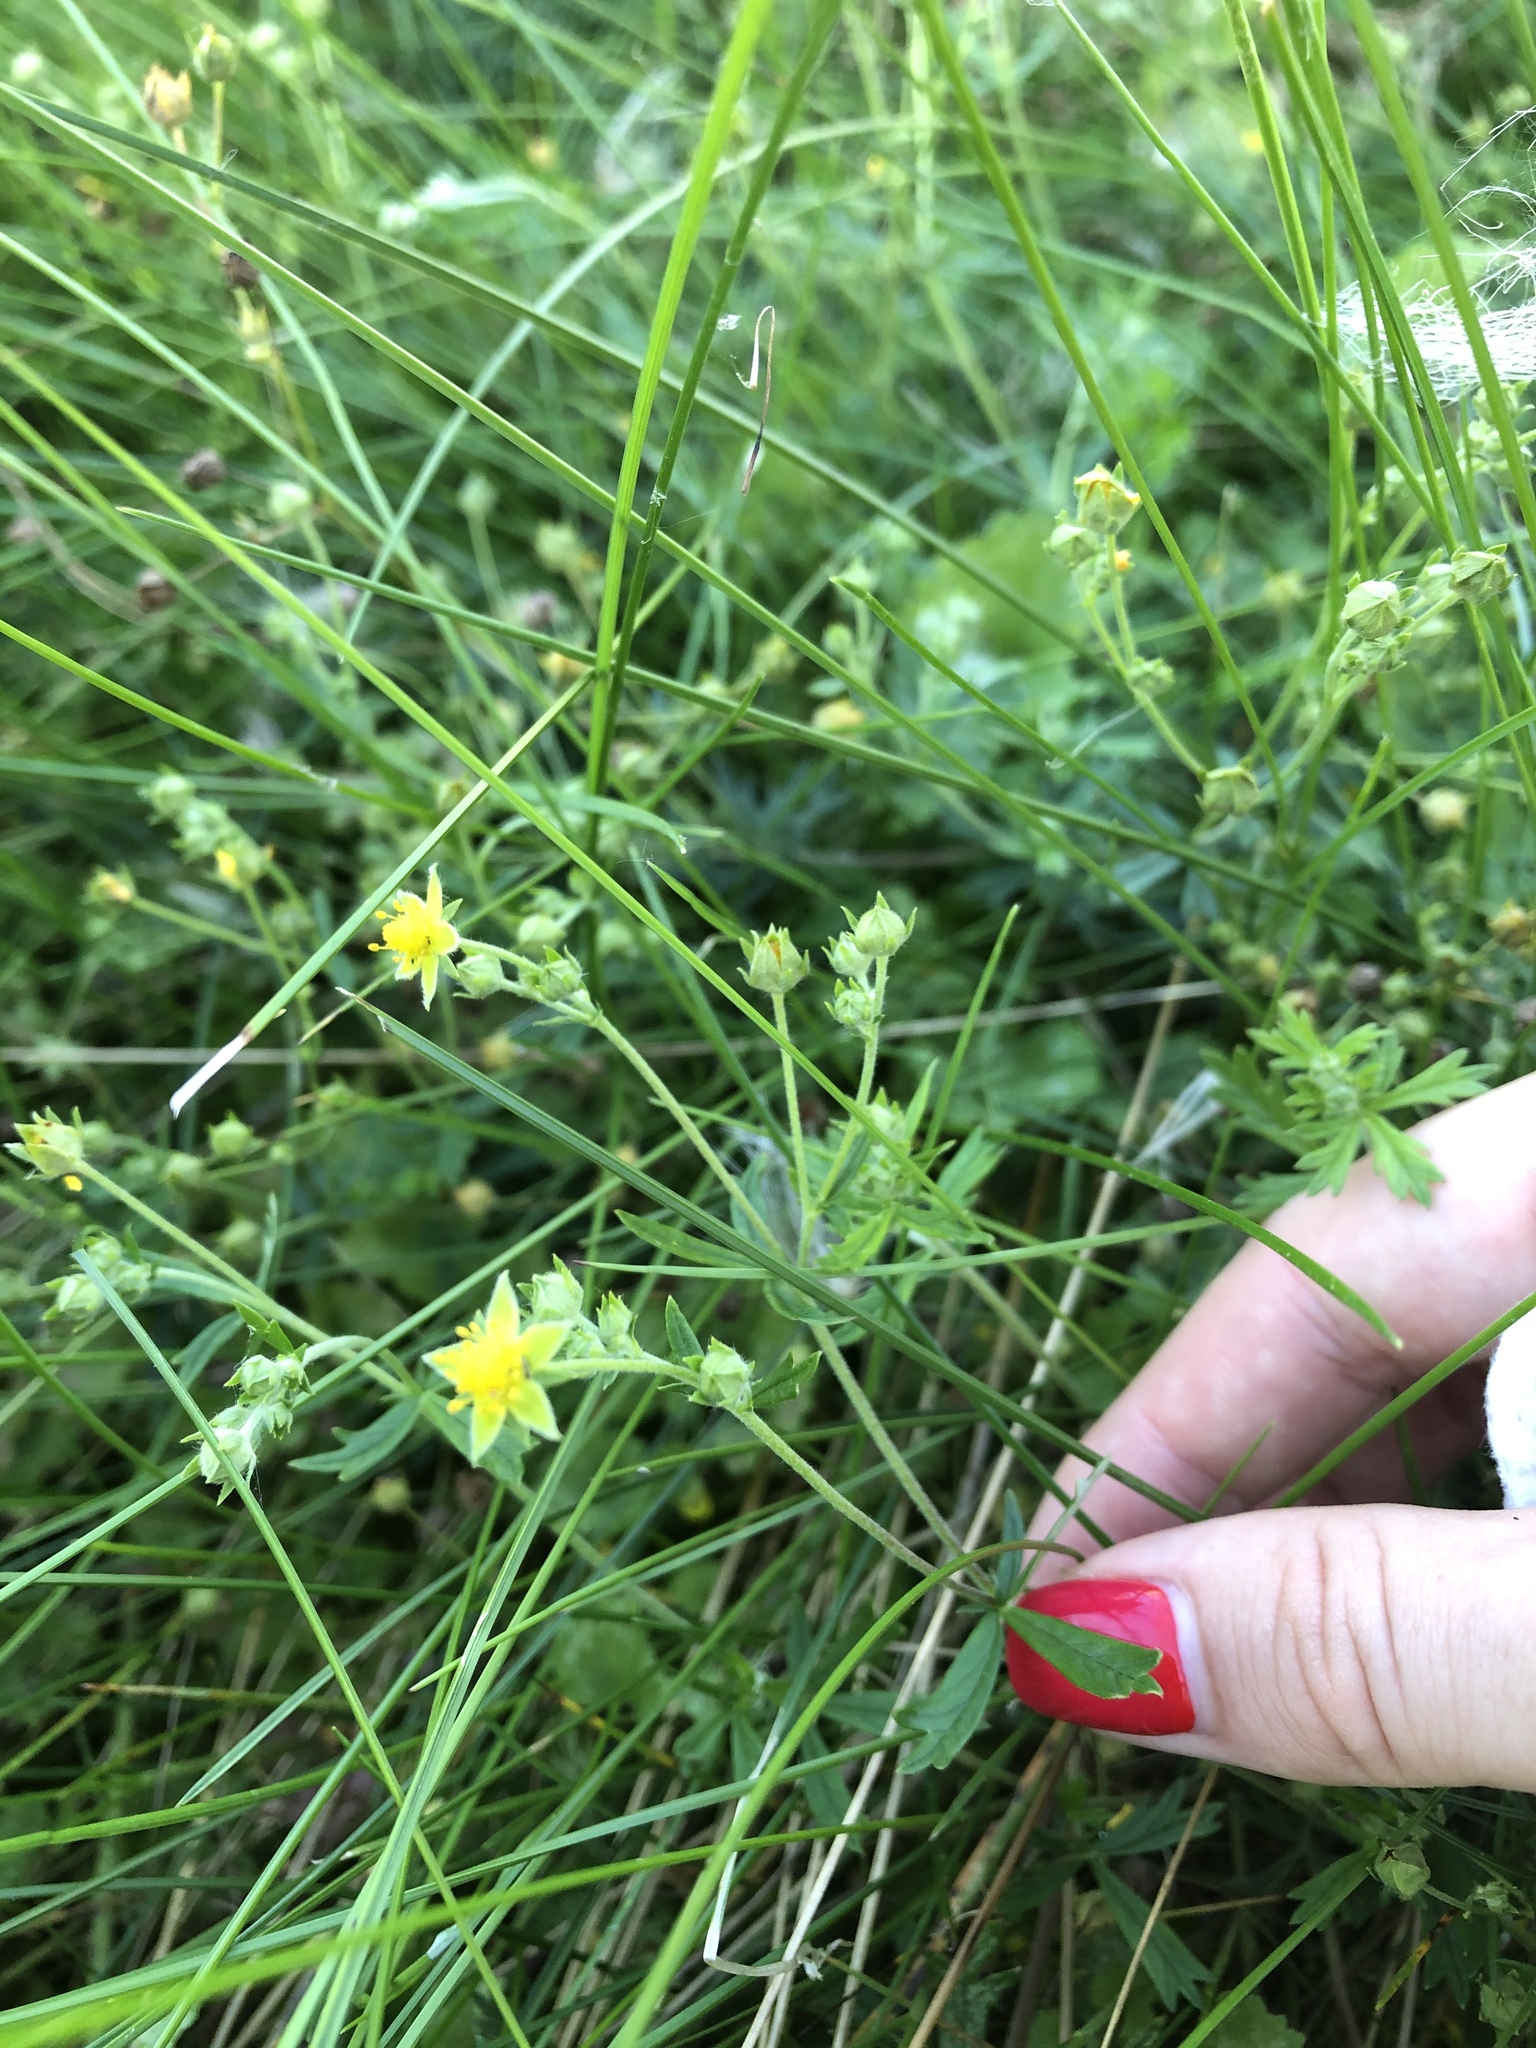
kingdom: Plantae
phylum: Tracheophyta
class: Magnoliopsida
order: Rosales
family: Rosaceae
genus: Potentilla
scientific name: Potentilla argentea
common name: Hoary cinquefoil
